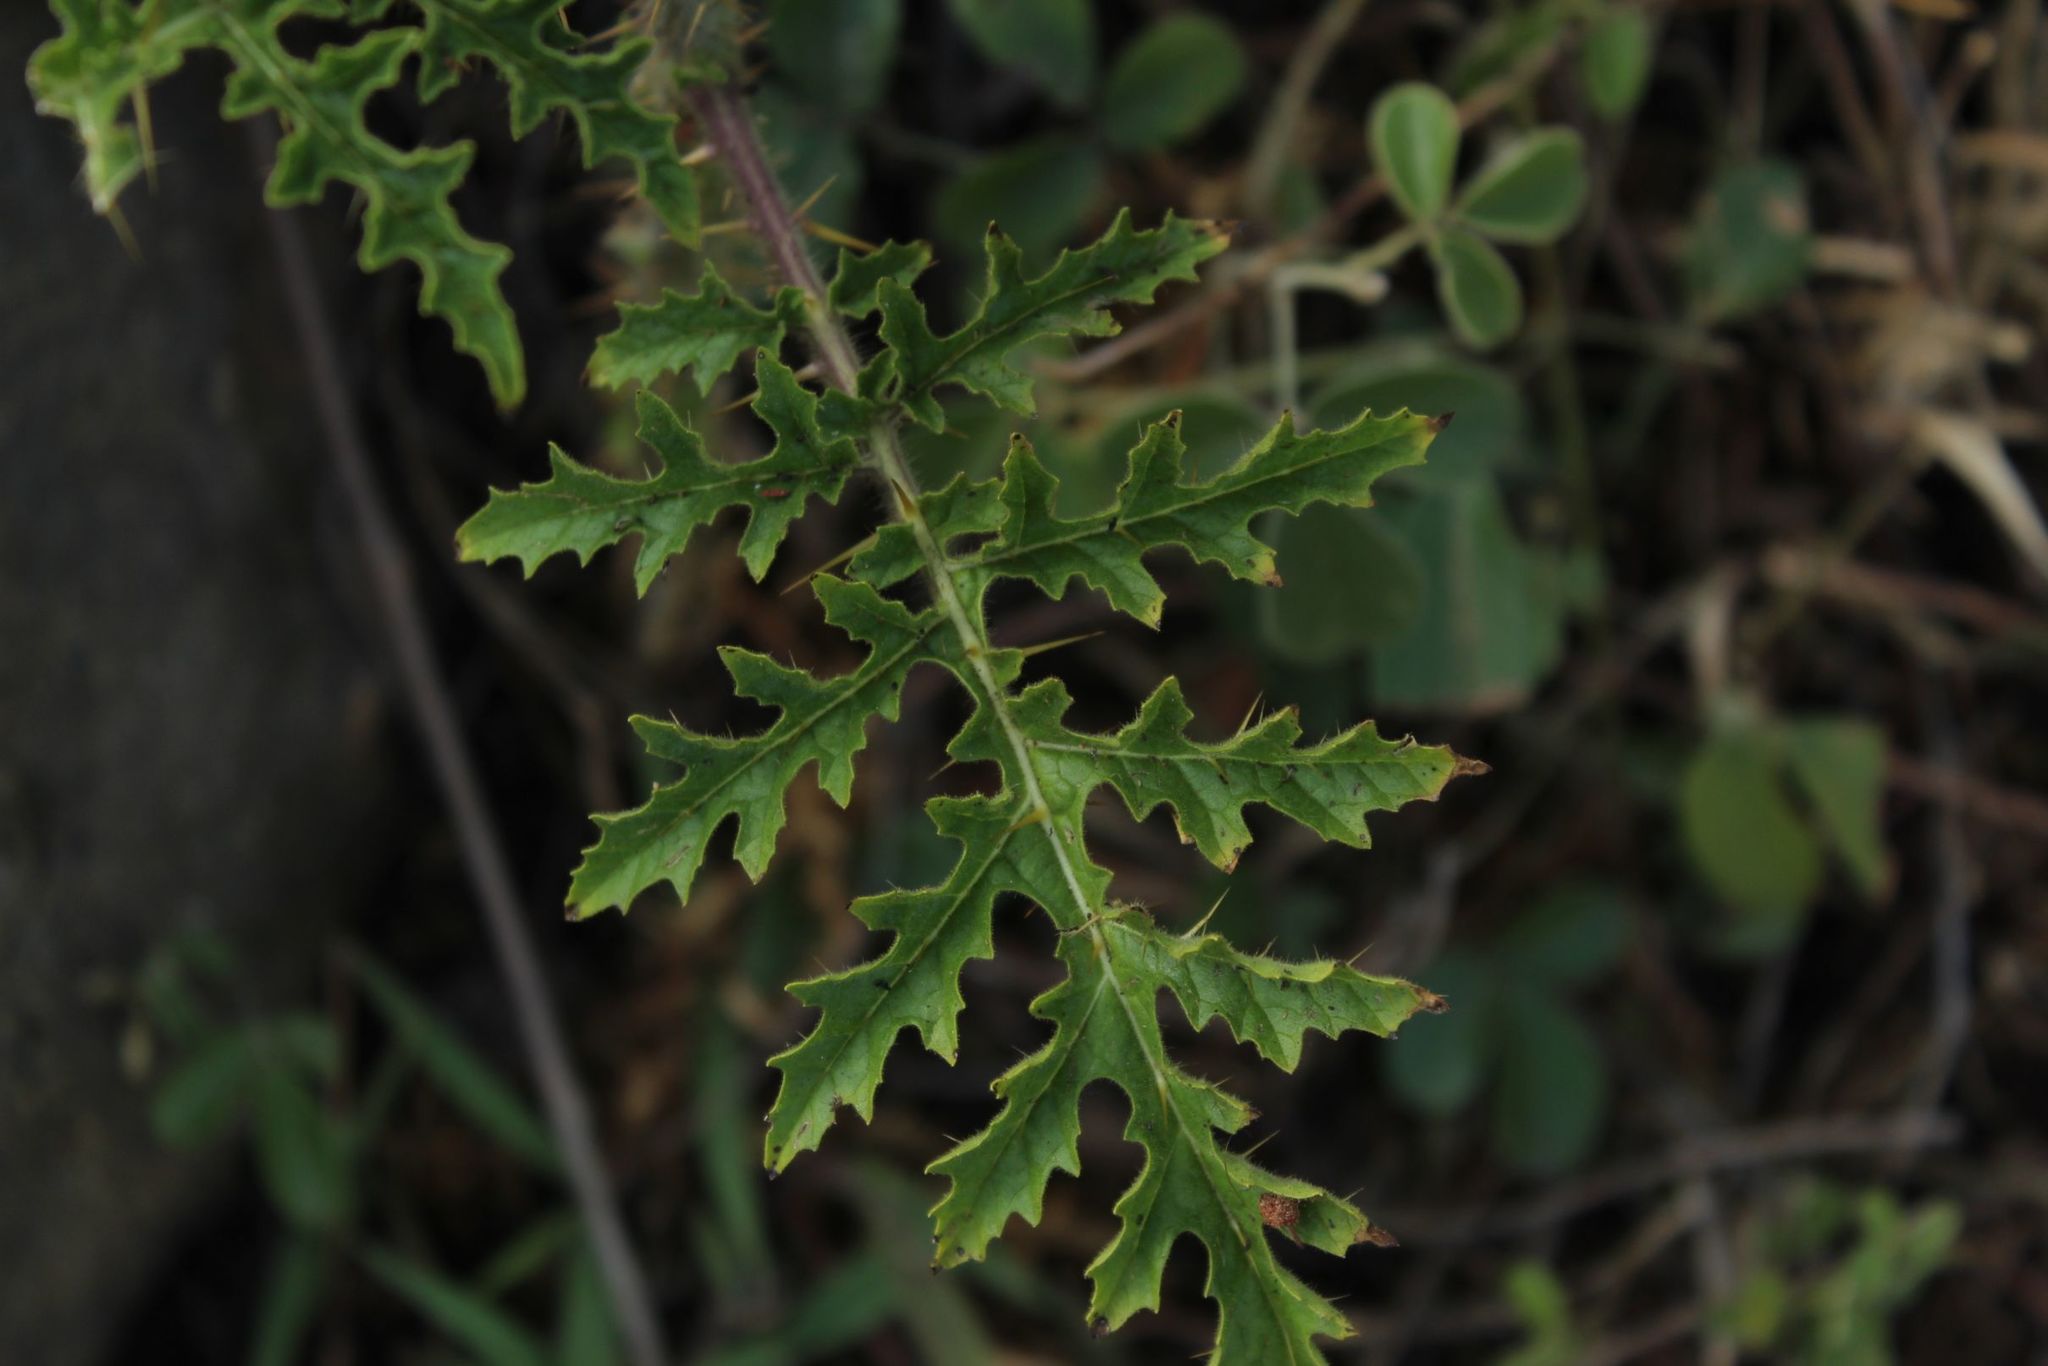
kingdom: Plantae
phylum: Tracheophyta
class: Magnoliopsida
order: Solanales
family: Solanaceae
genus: Solanum
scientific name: Solanum sisymbriifolium
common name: Red buffalo-bur
